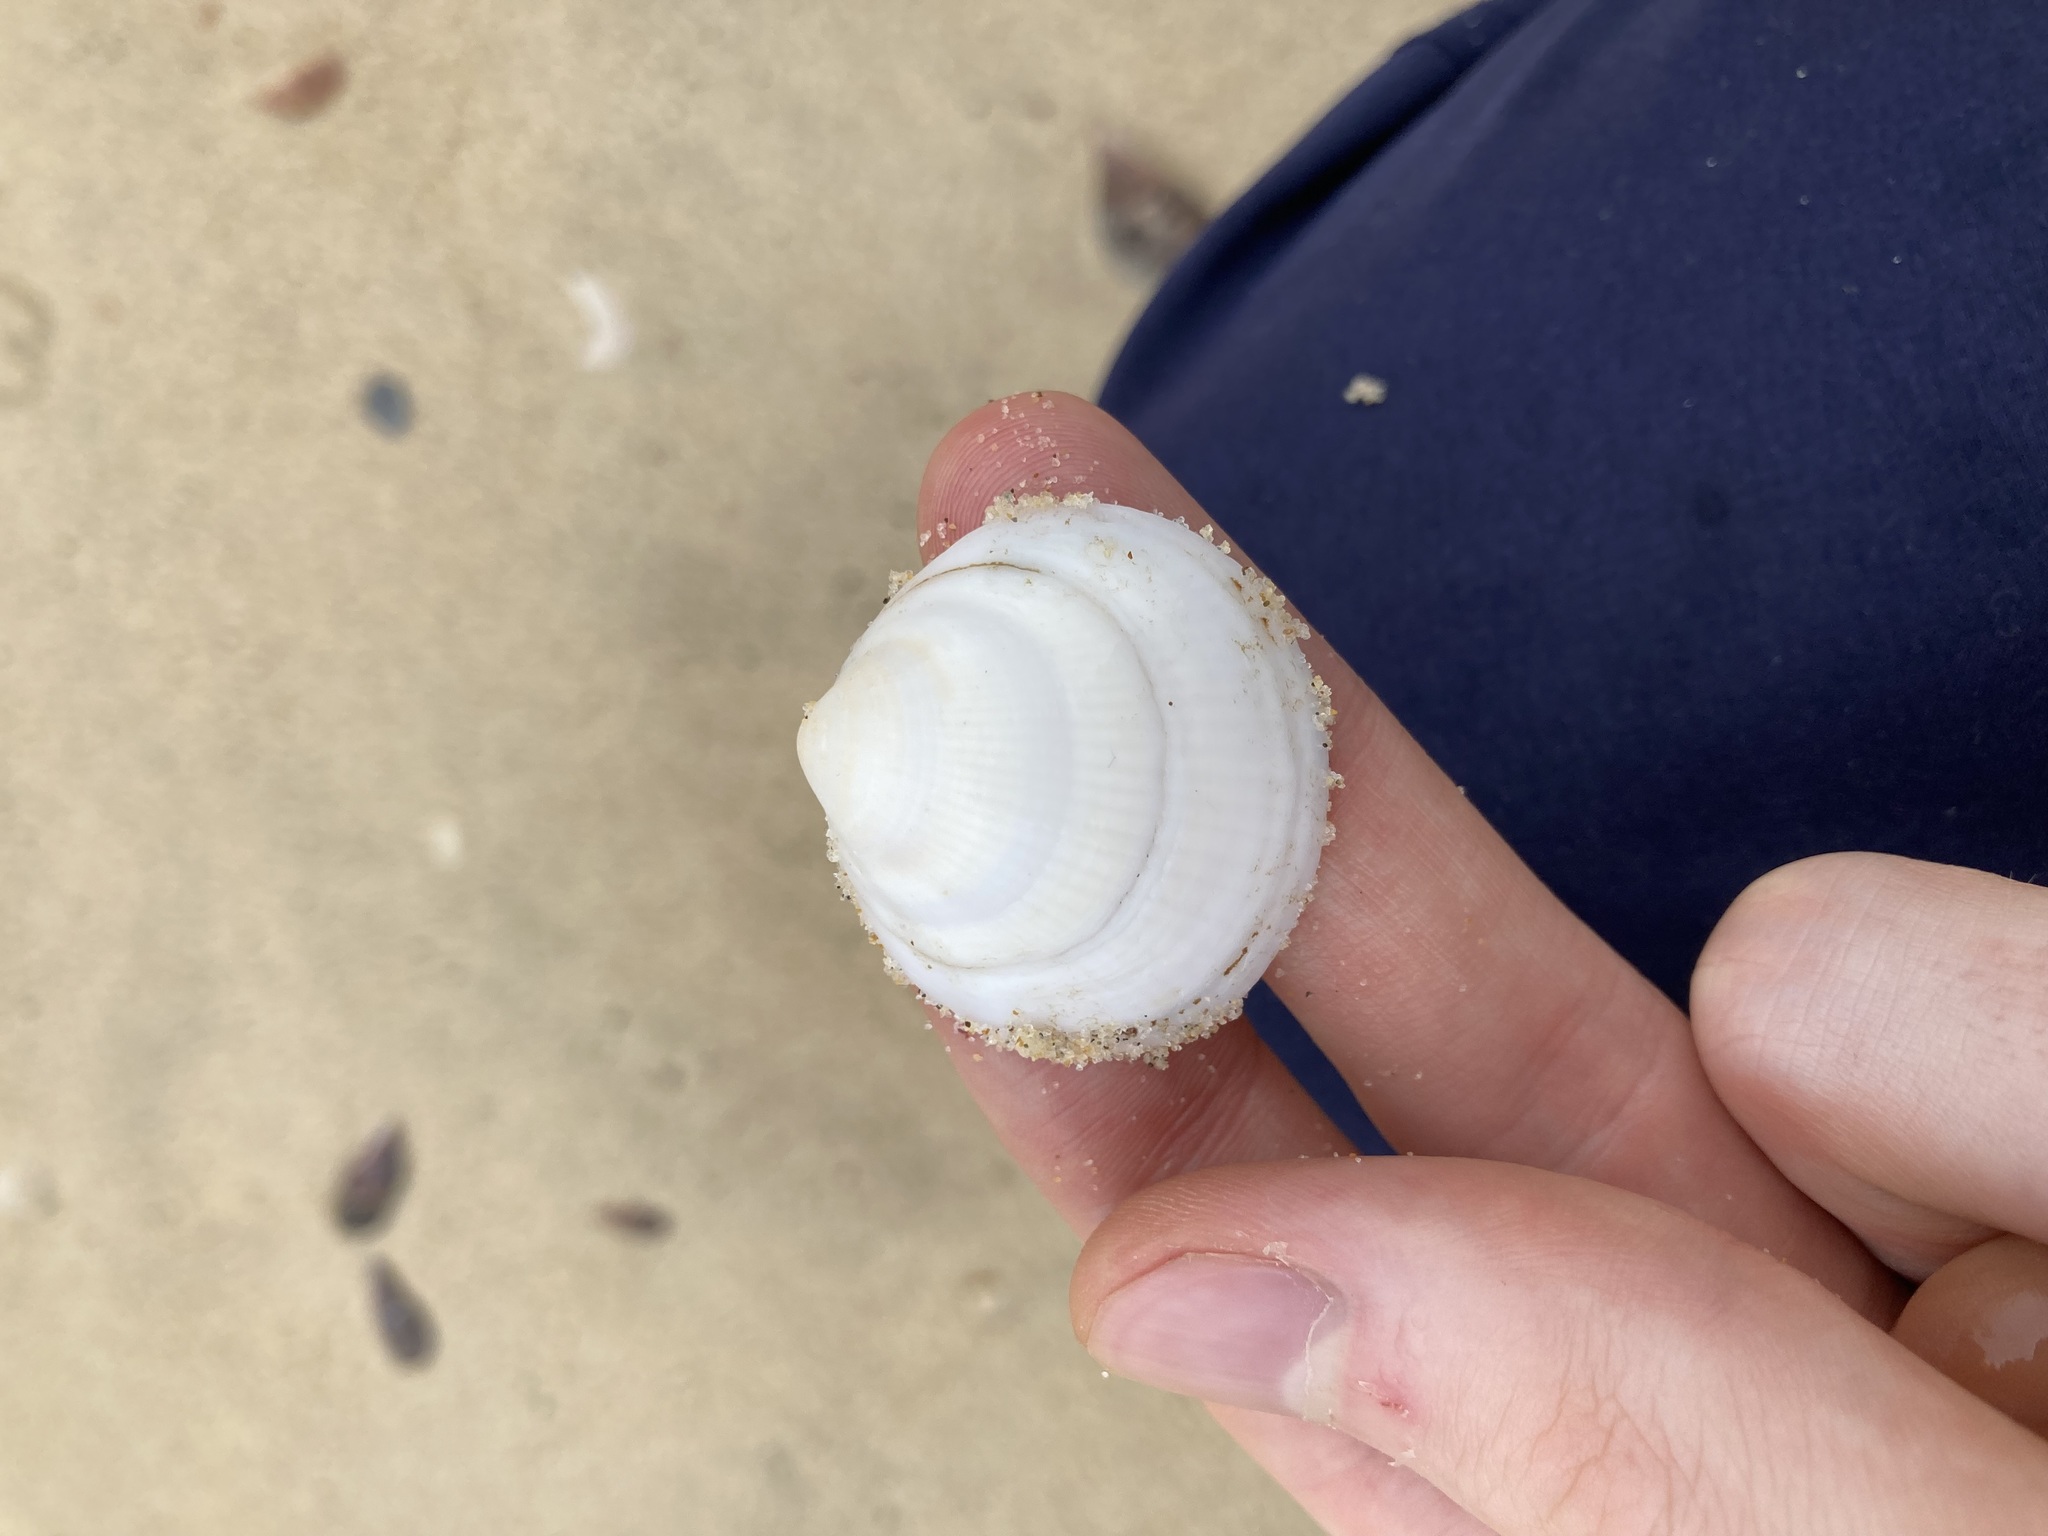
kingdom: Animalia
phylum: Mollusca
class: Bivalvia
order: Arcida
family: Glycymerididae
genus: Glycymeris
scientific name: Glycymeris holoserica
